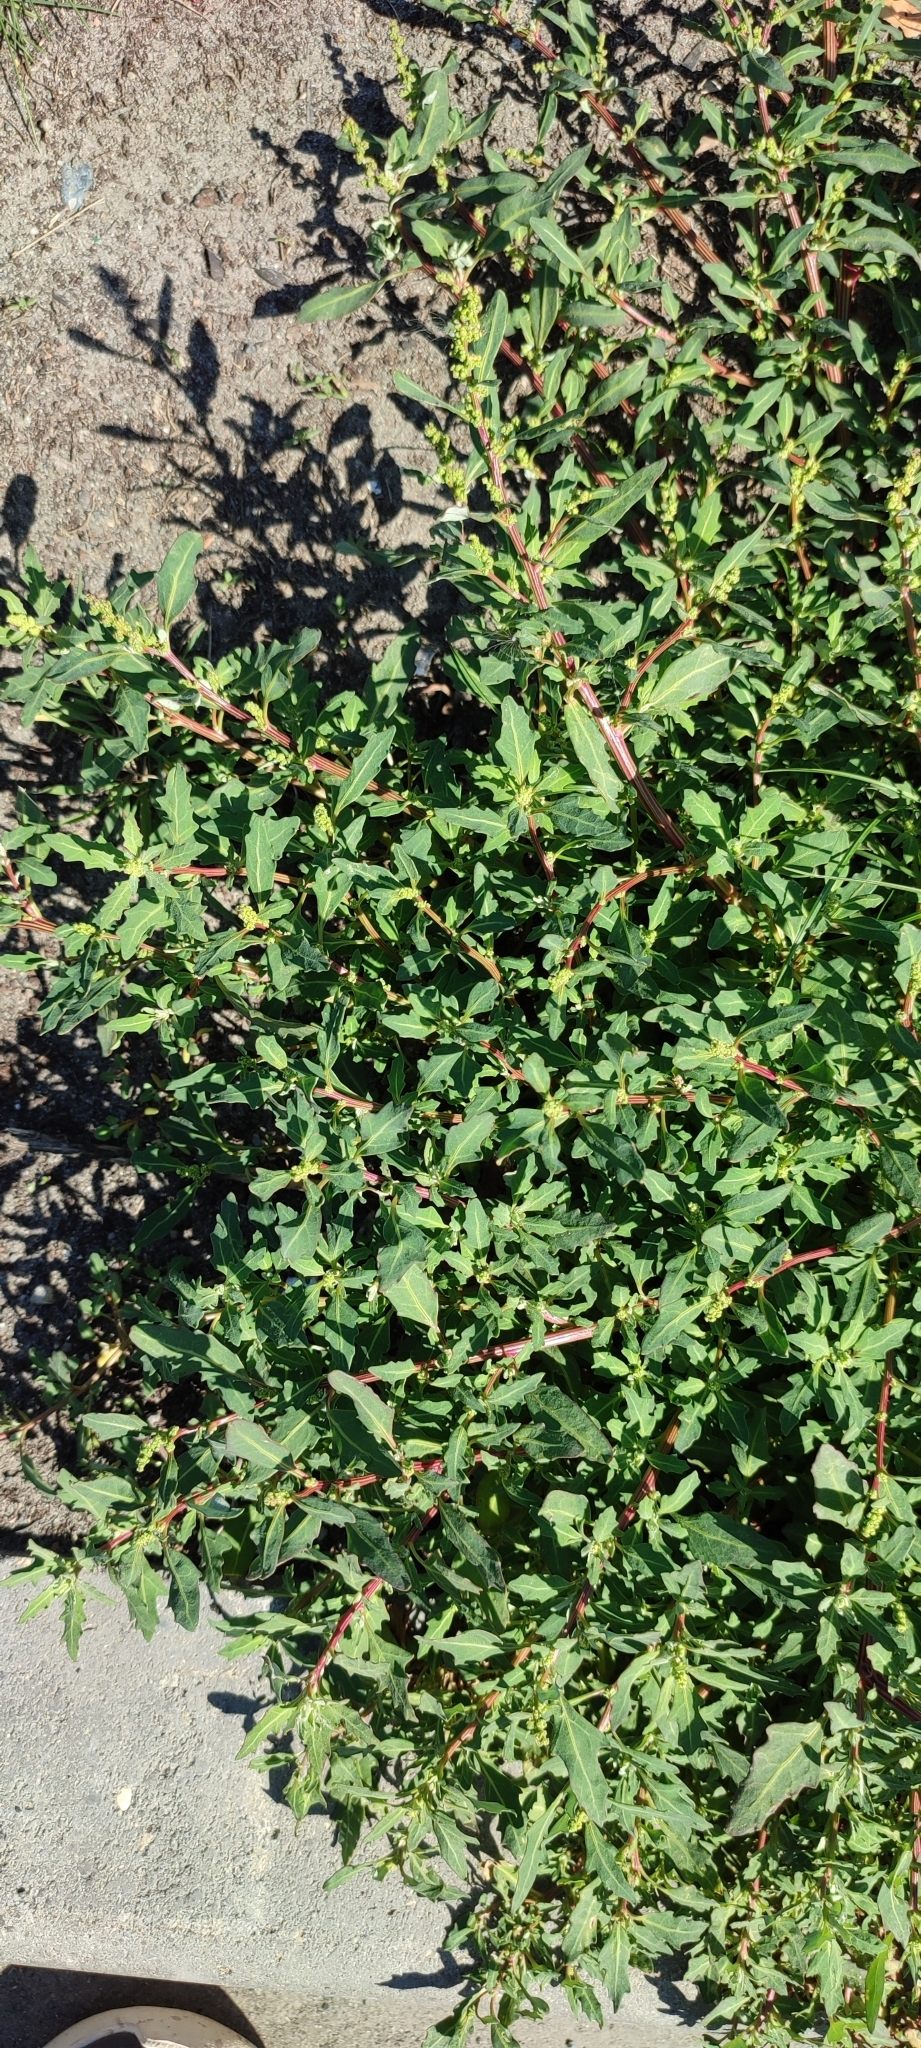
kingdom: Plantae
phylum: Tracheophyta
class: Magnoliopsida
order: Caryophyllales
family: Amaranthaceae
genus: Oxybasis
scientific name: Oxybasis glauca
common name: Glaucous goosefoot
